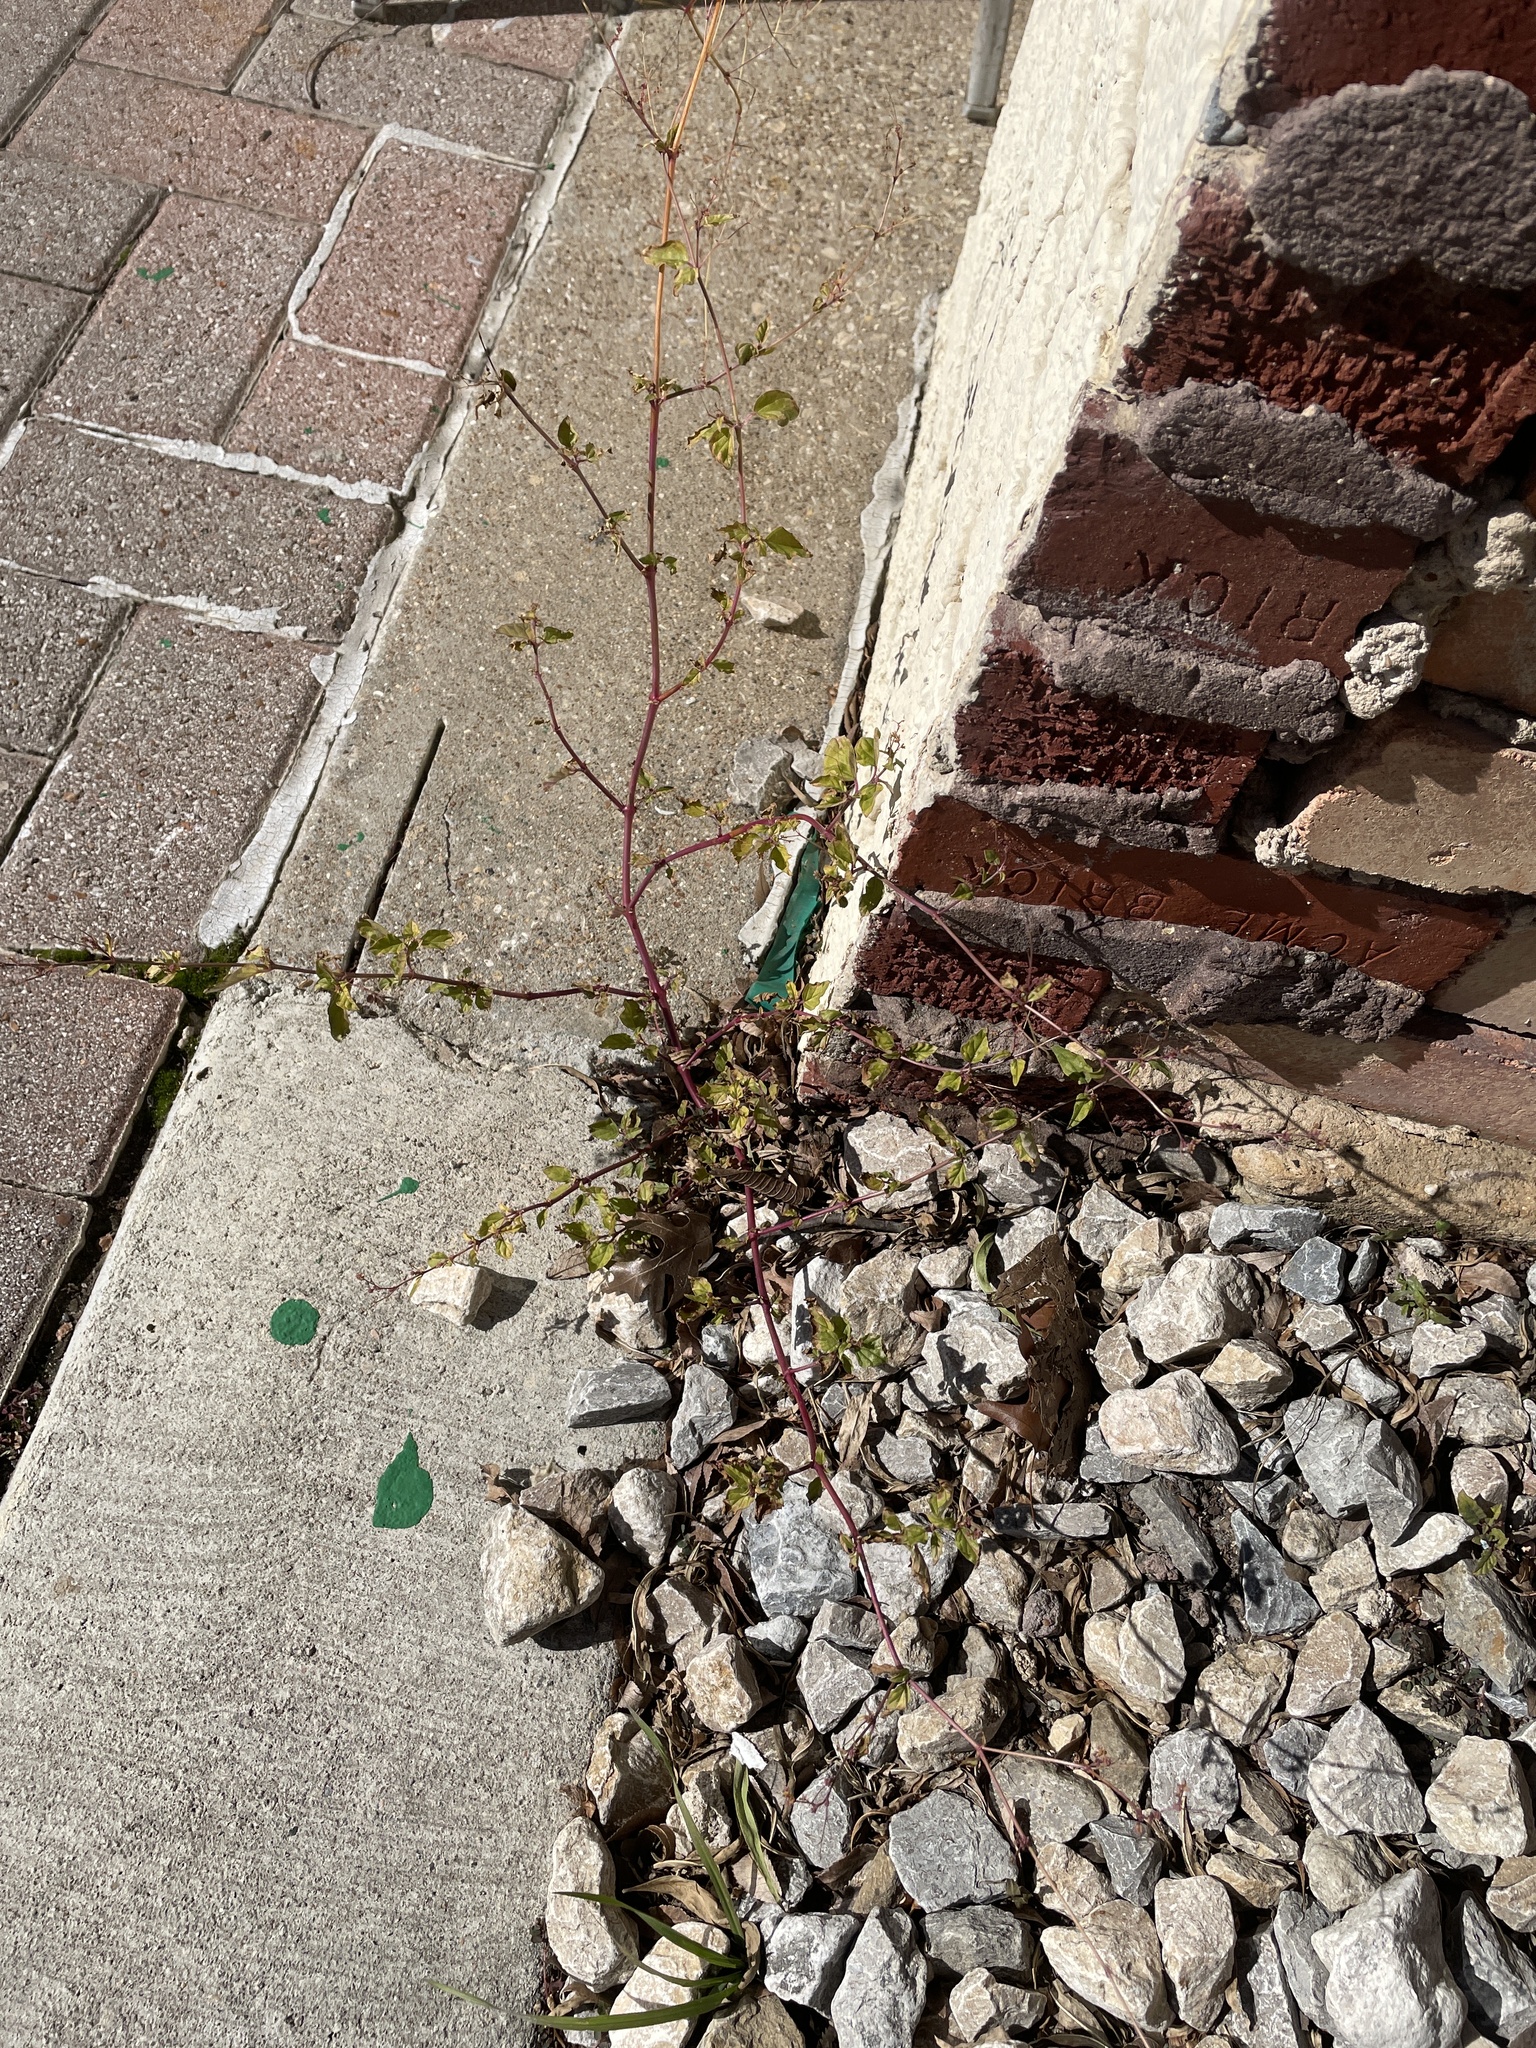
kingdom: Plantae
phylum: Tracheophyta
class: Magnoliopsida
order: Caryophyllales
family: Nyctaginaceae
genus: Boerhavia
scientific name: Boerhavia erecta
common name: Erect spiderling
